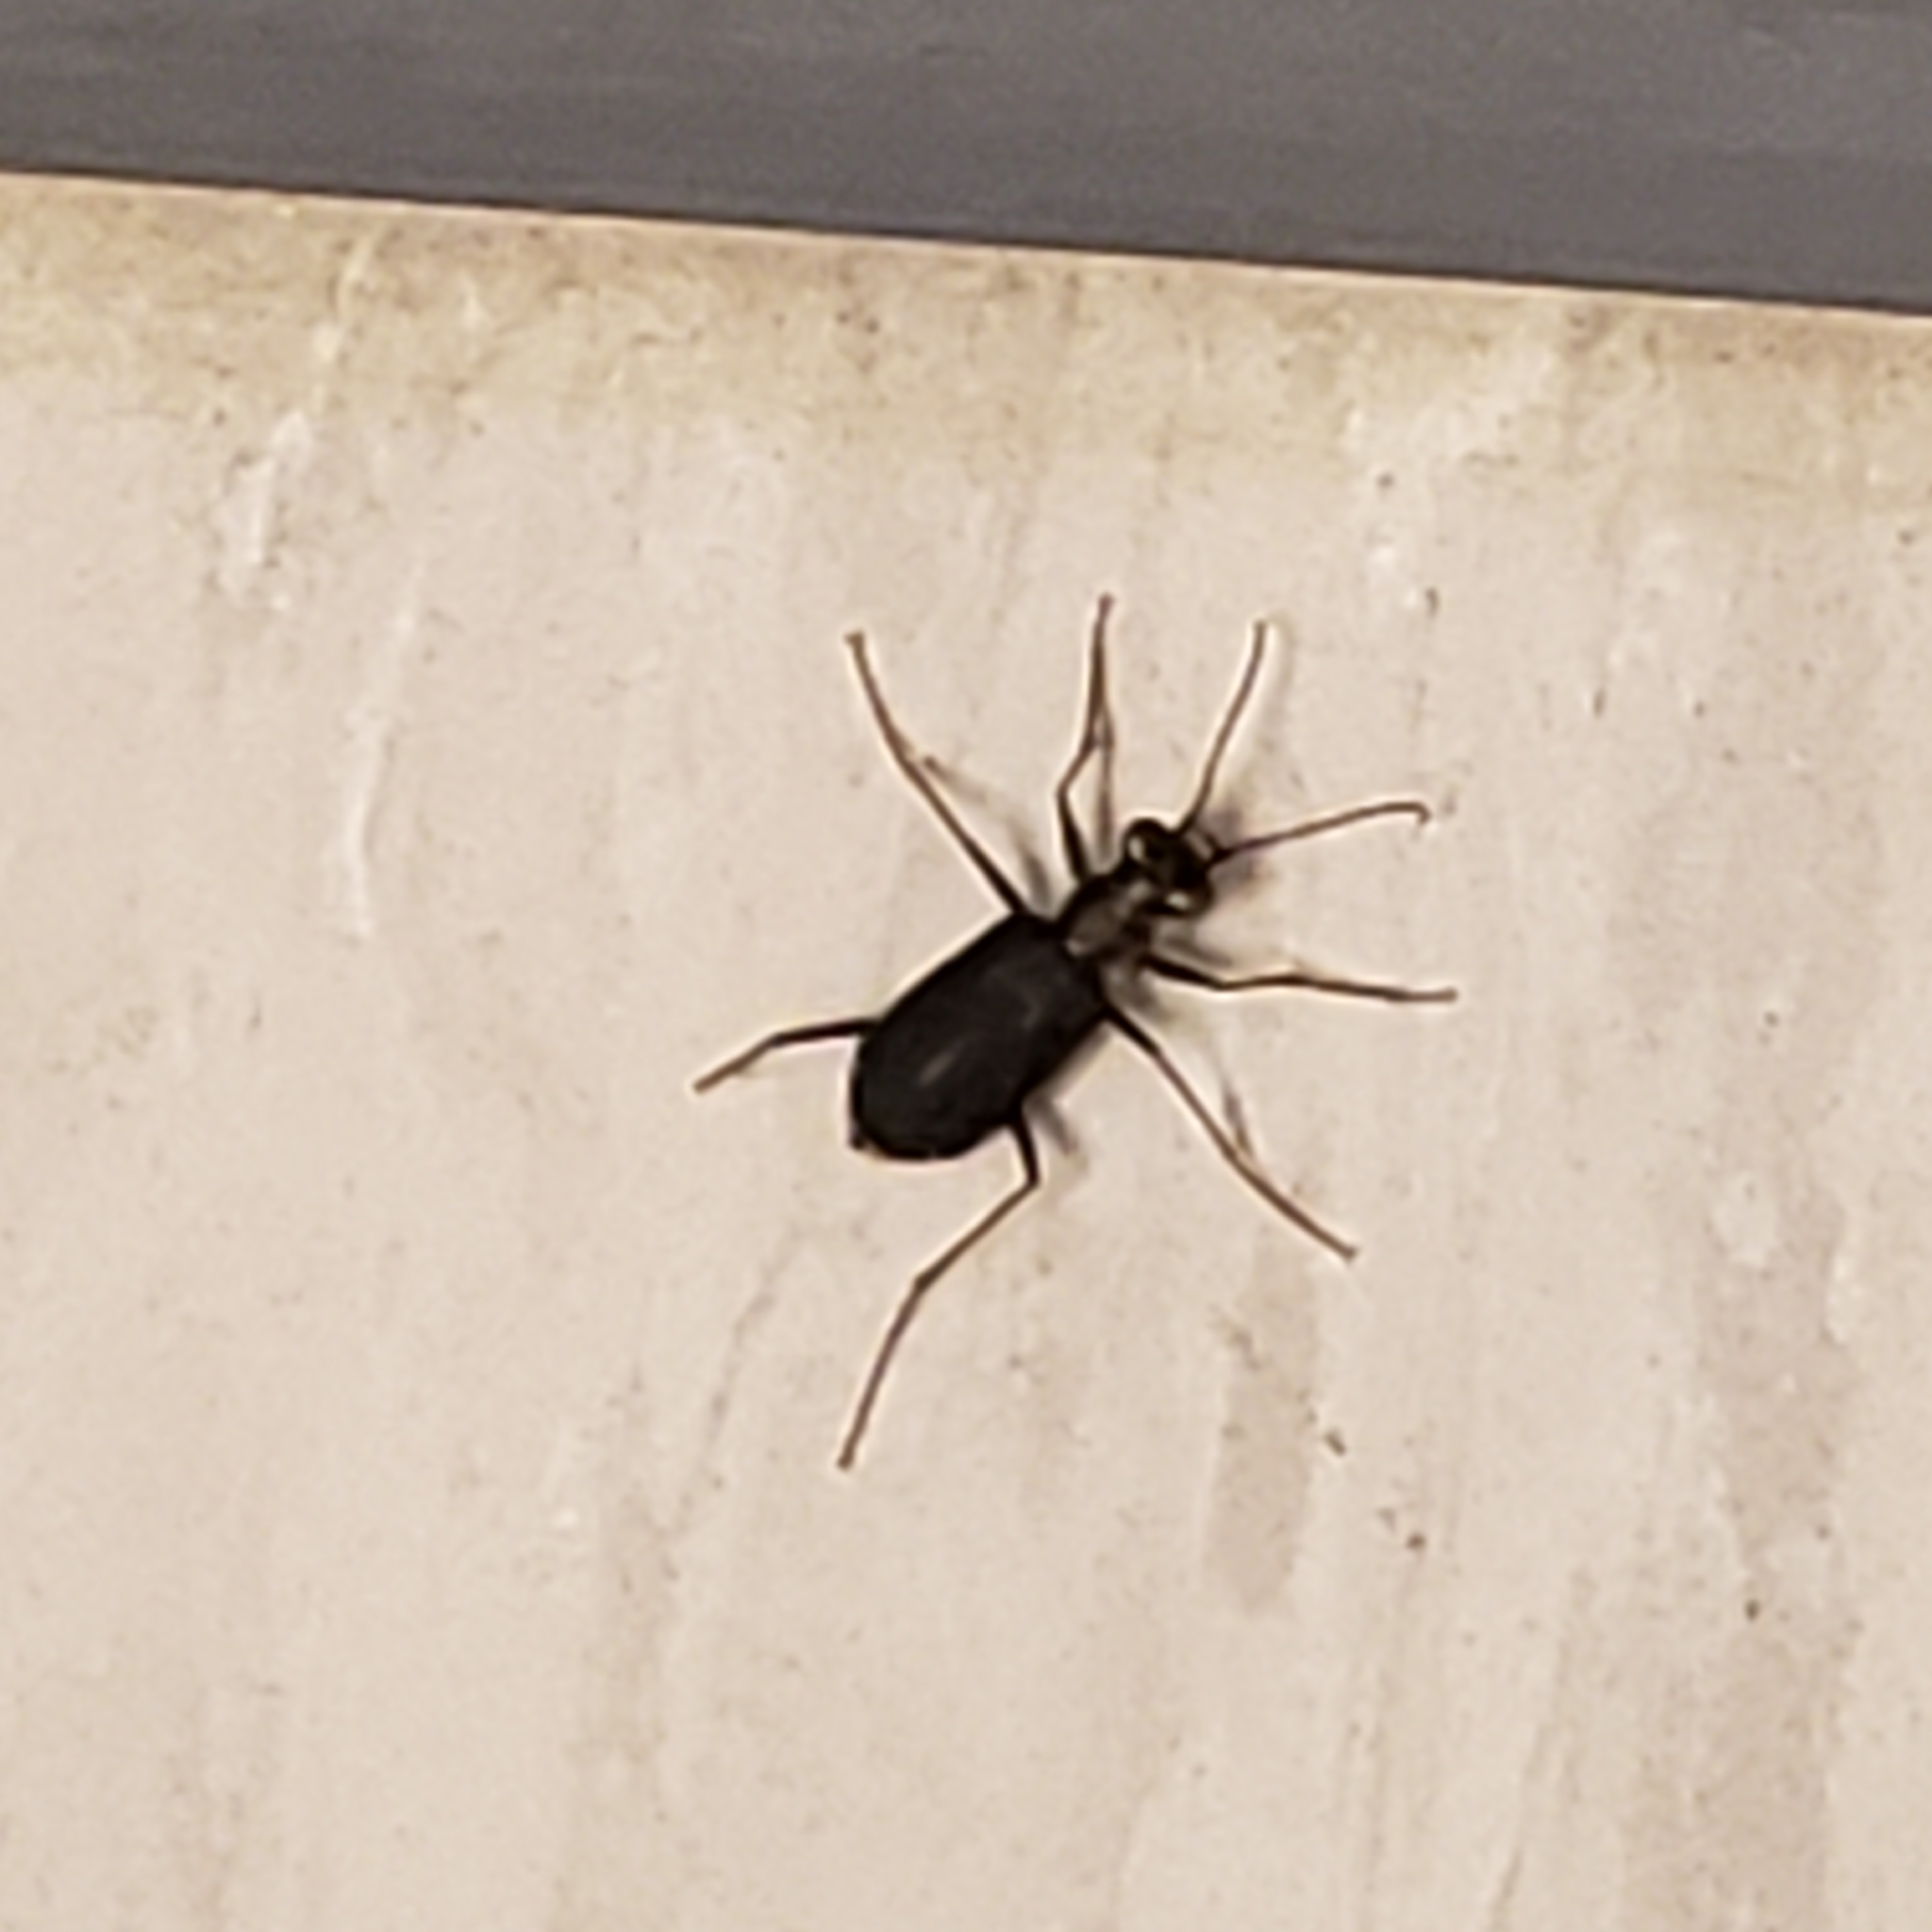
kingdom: Animalia
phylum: Arthropoda
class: Insecta
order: Coleoptera
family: Carabidae
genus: Cicindela
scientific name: Cicindela punctulata
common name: Punctured tiger beetle
